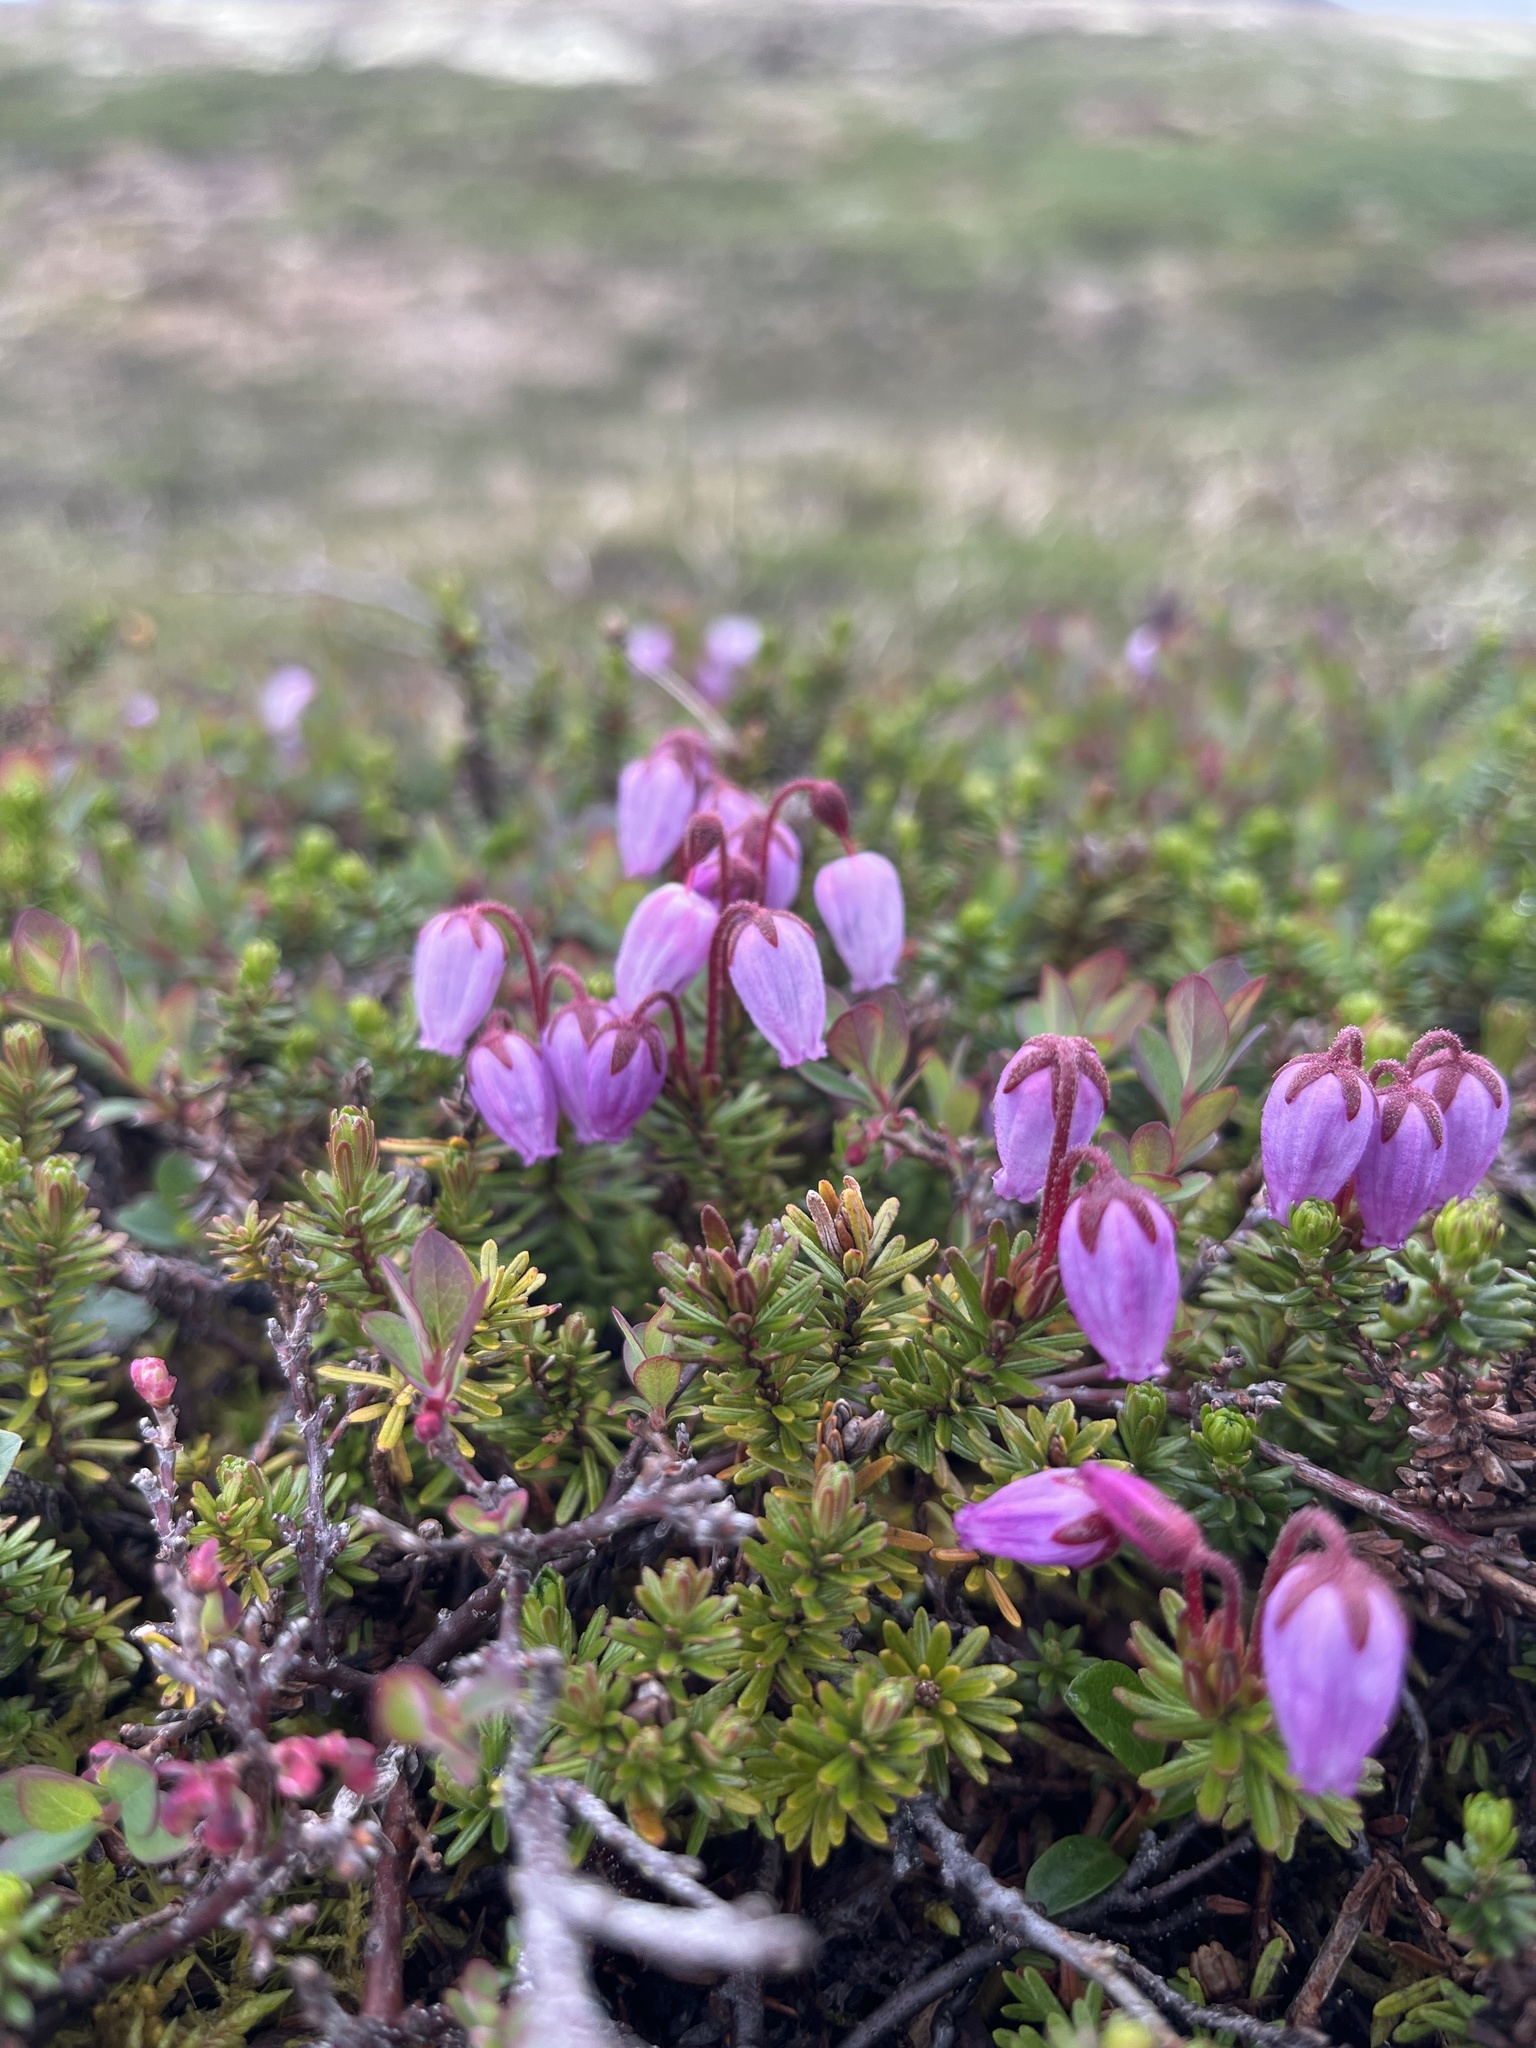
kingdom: Plantae
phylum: Tracheophyta
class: Magnoliopsida
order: Ericales
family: Ericaceae
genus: Phyllodoce
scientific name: Phyllodoce caerulea
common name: Blue heath
